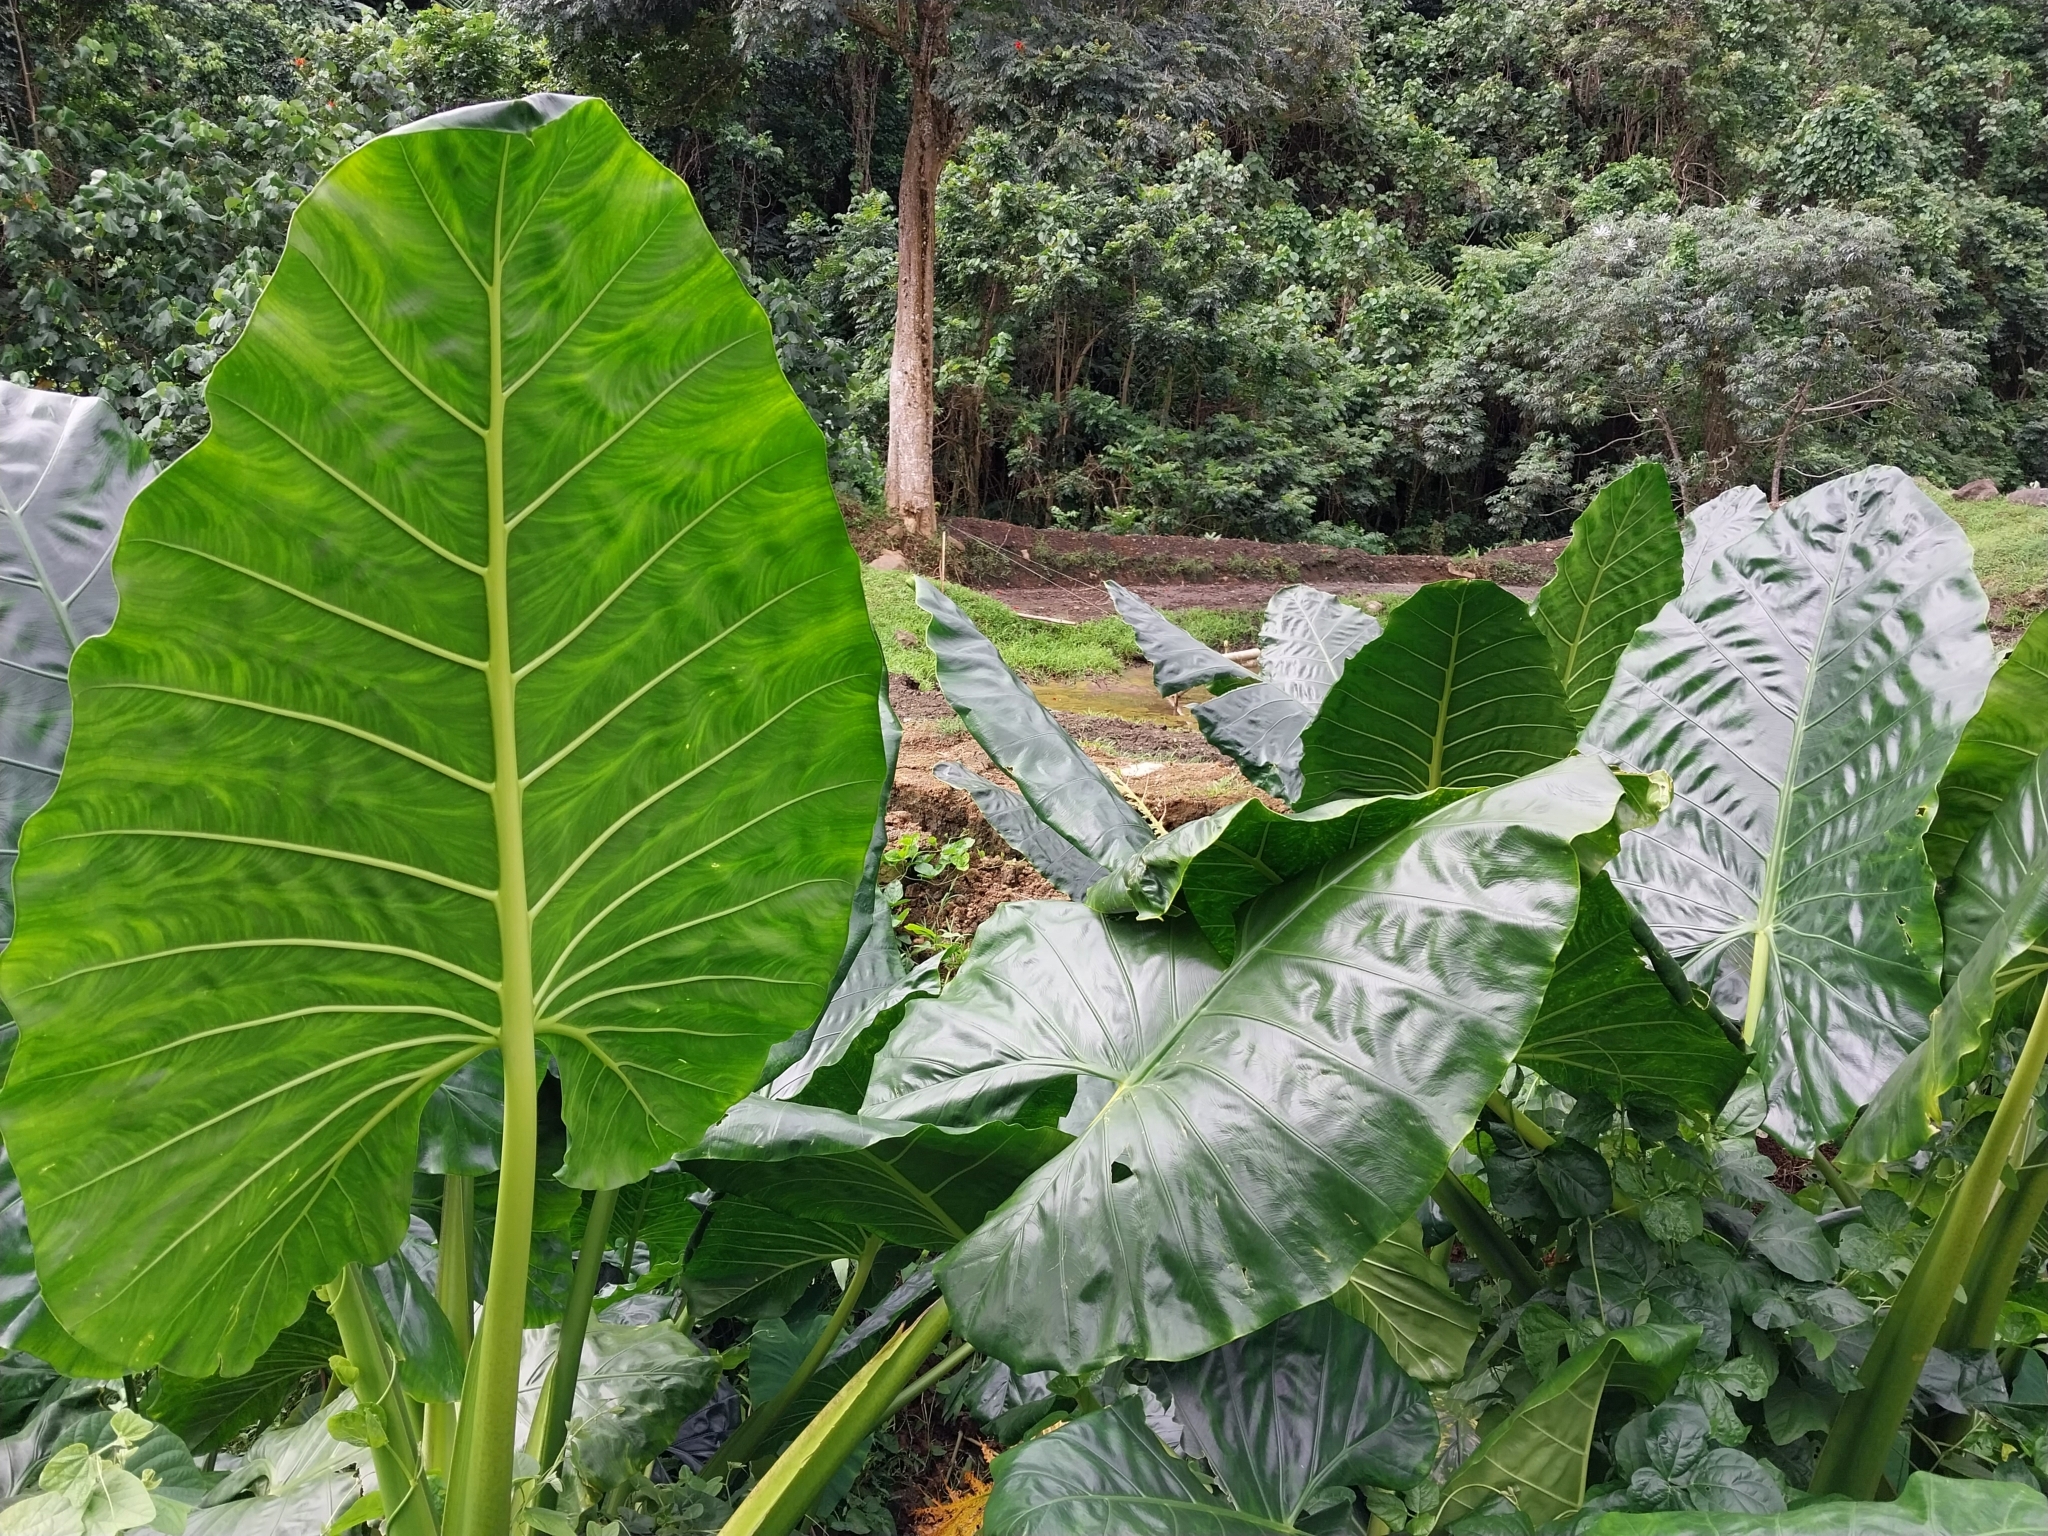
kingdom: Plantae
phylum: Tracheophyta
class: Liliopsida
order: Alismatales
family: Araceae
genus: Alocasia
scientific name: Alocasia macrorrhizos
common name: Giant taro
